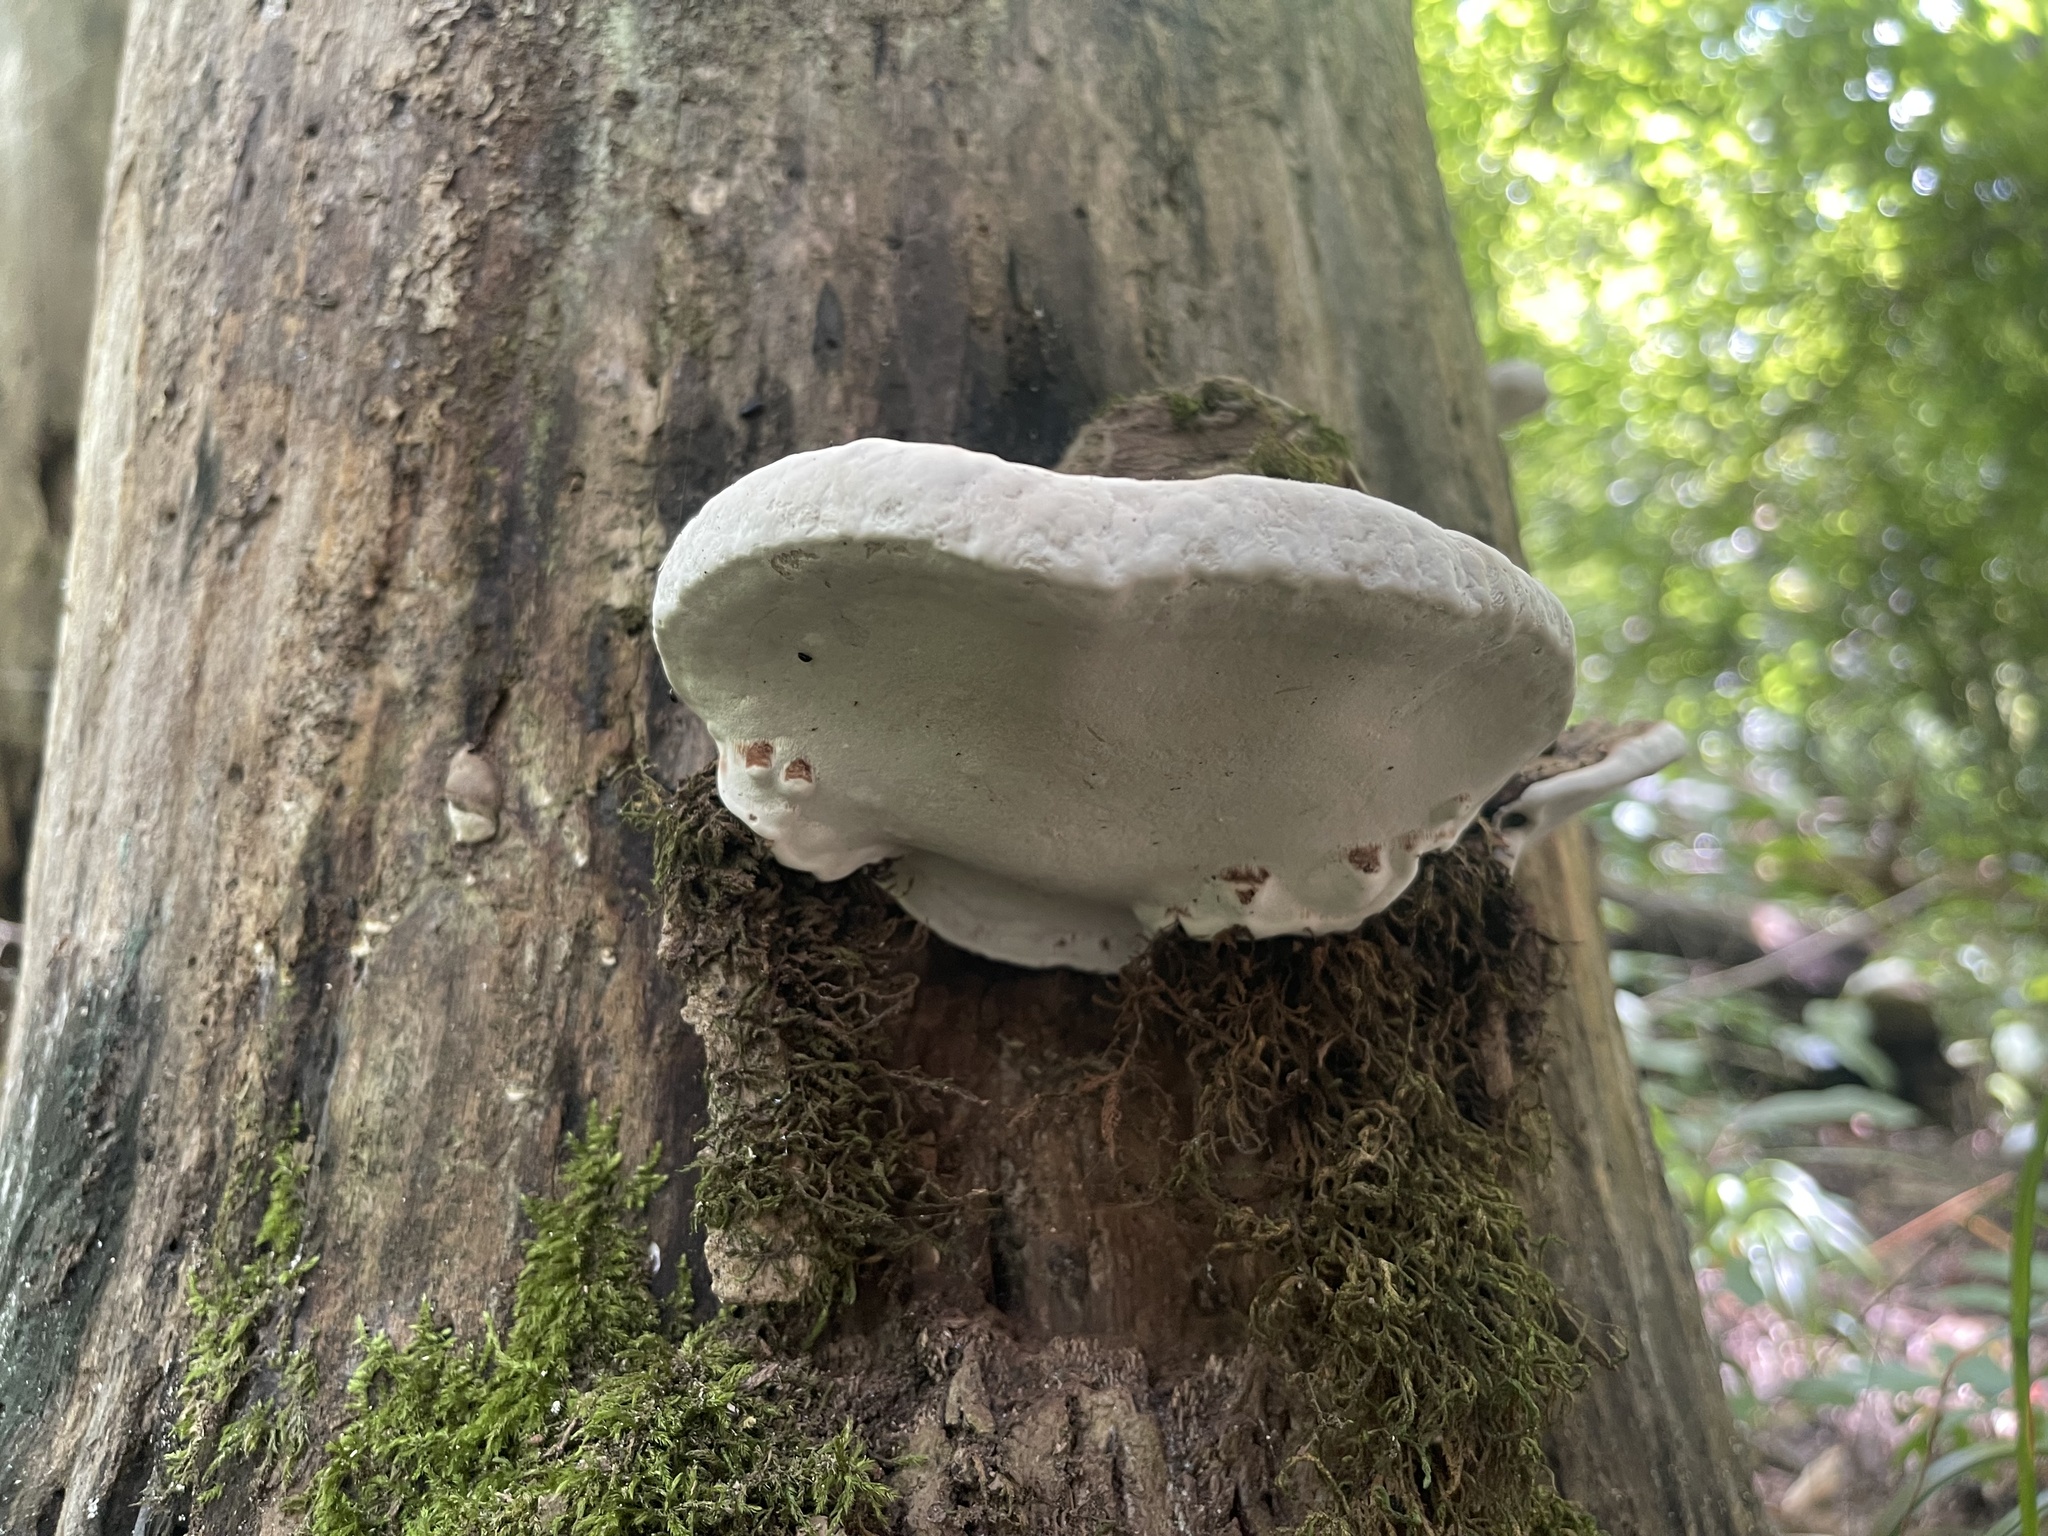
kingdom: Fungi
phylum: Basidiomycota
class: Agaricomycetes
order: Polyporales
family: Polyporaceae
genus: Ganoderma
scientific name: Ganoderma lobatum
